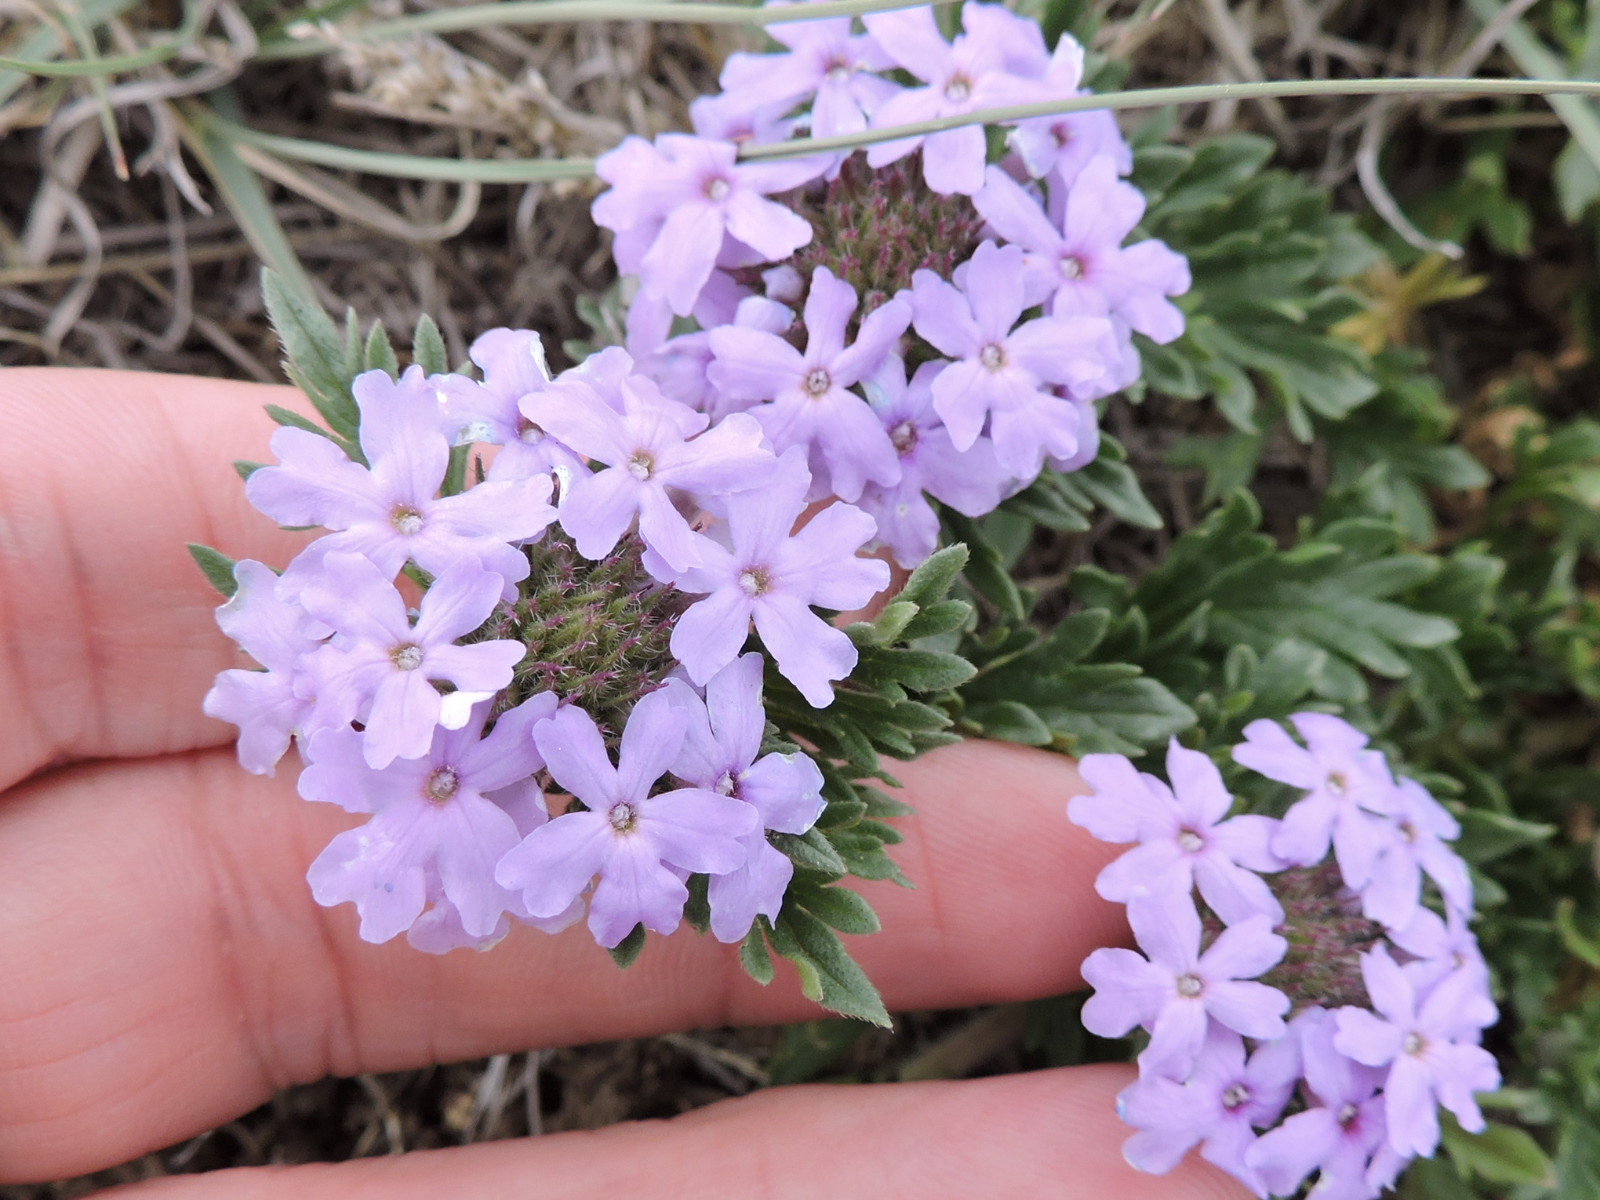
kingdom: Plantae
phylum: Tracheophyta
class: Magnoliopsida
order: Lamiales
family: Verbenaceae
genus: Verbena
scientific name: Verbena bipinnatifida
